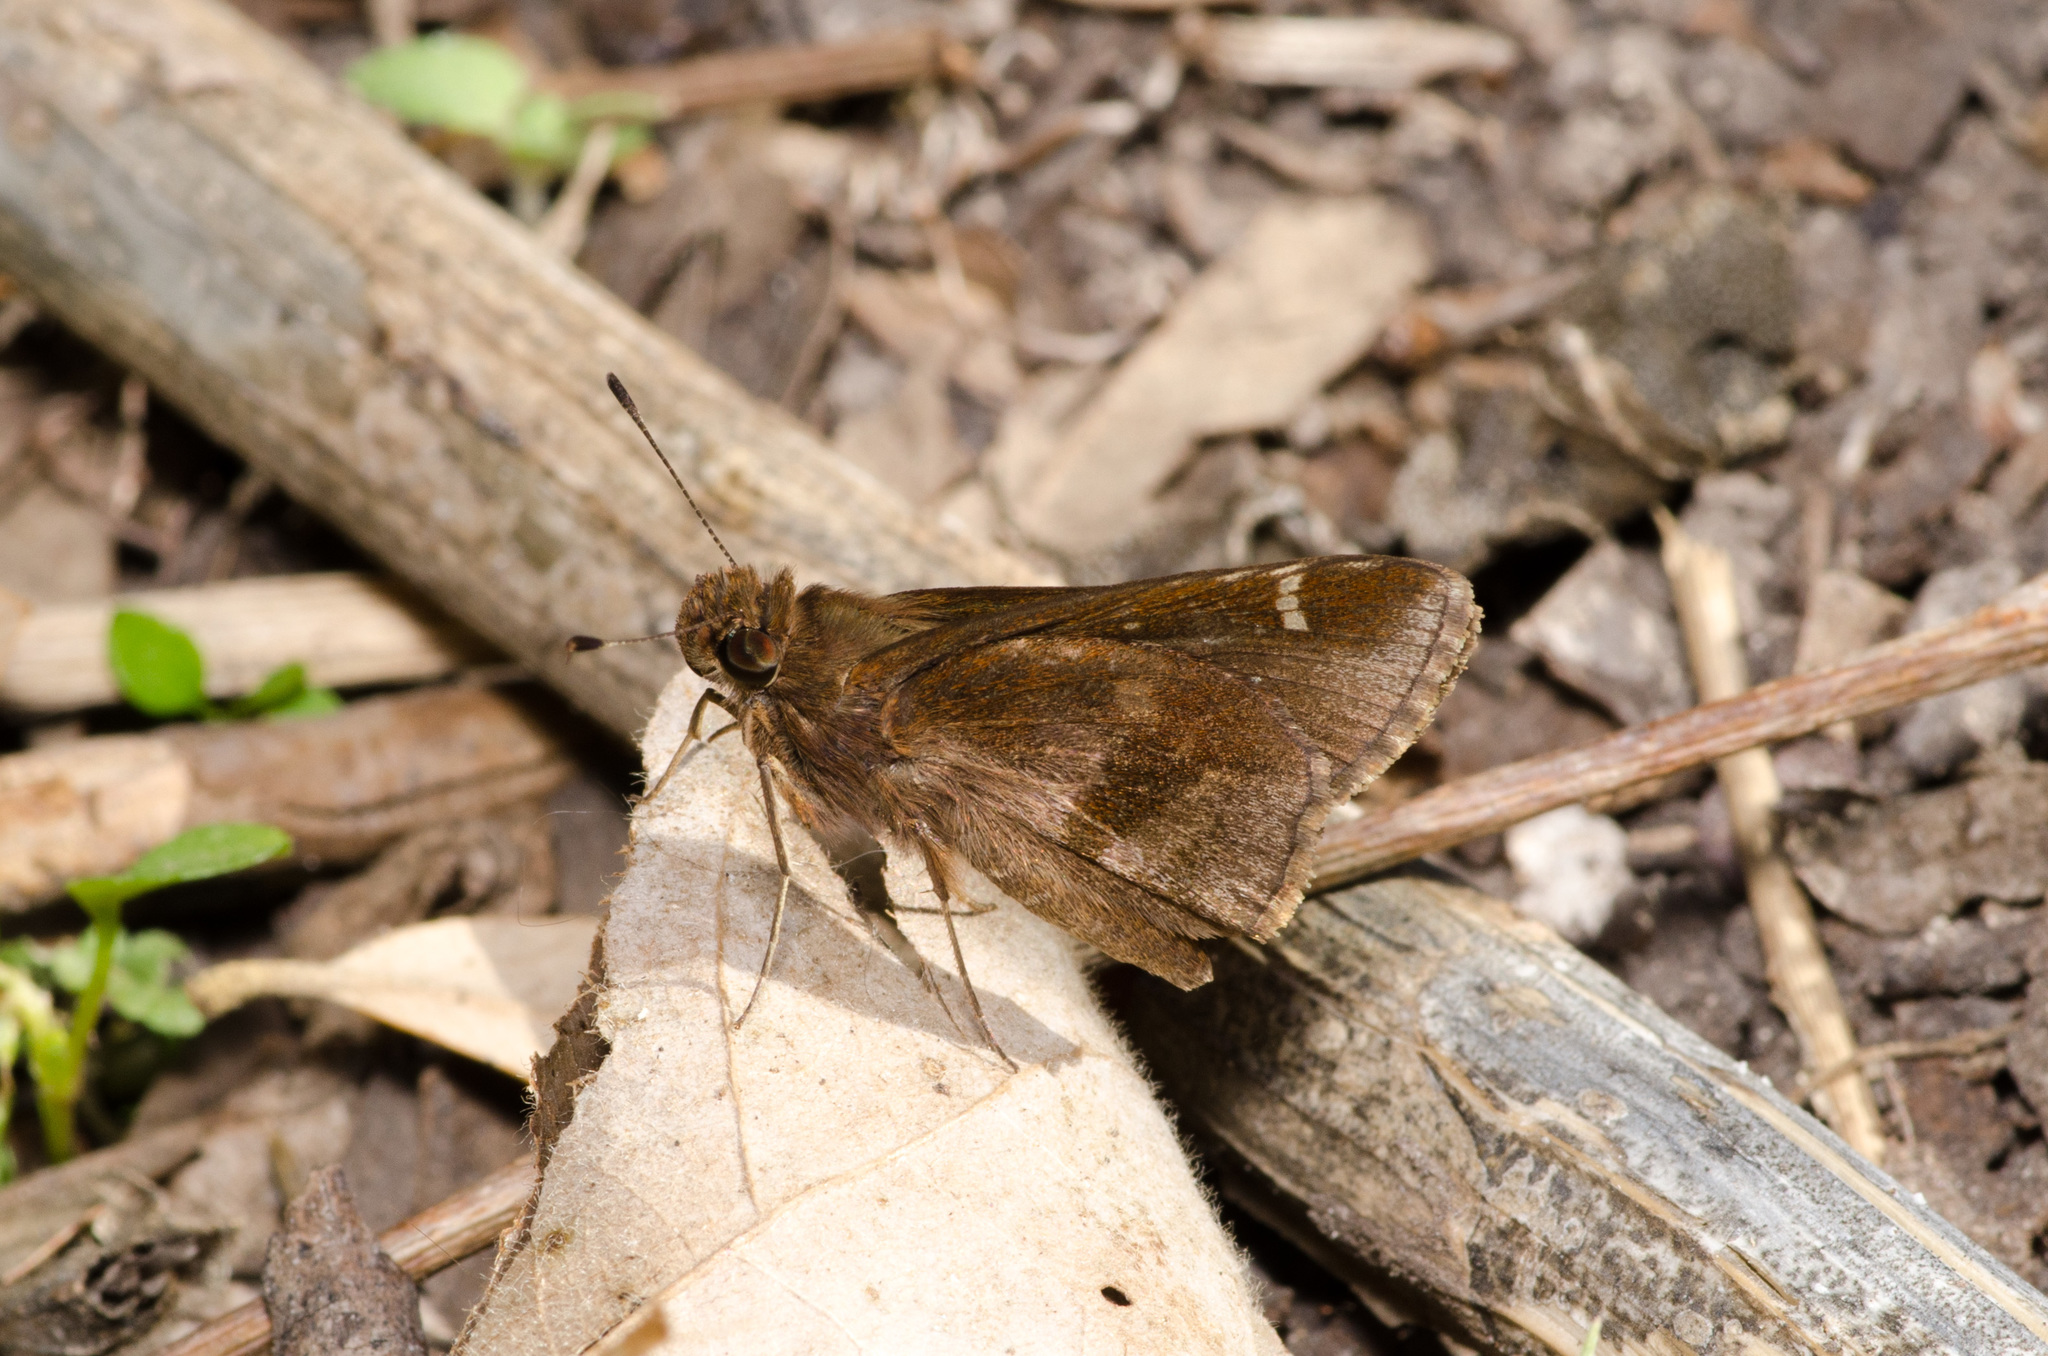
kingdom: Animalia
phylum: Arthropoda
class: Insecta
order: Lepidoptera
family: Hesperiidae
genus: Lerema
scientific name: Lerema accius
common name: Clouded skipper
